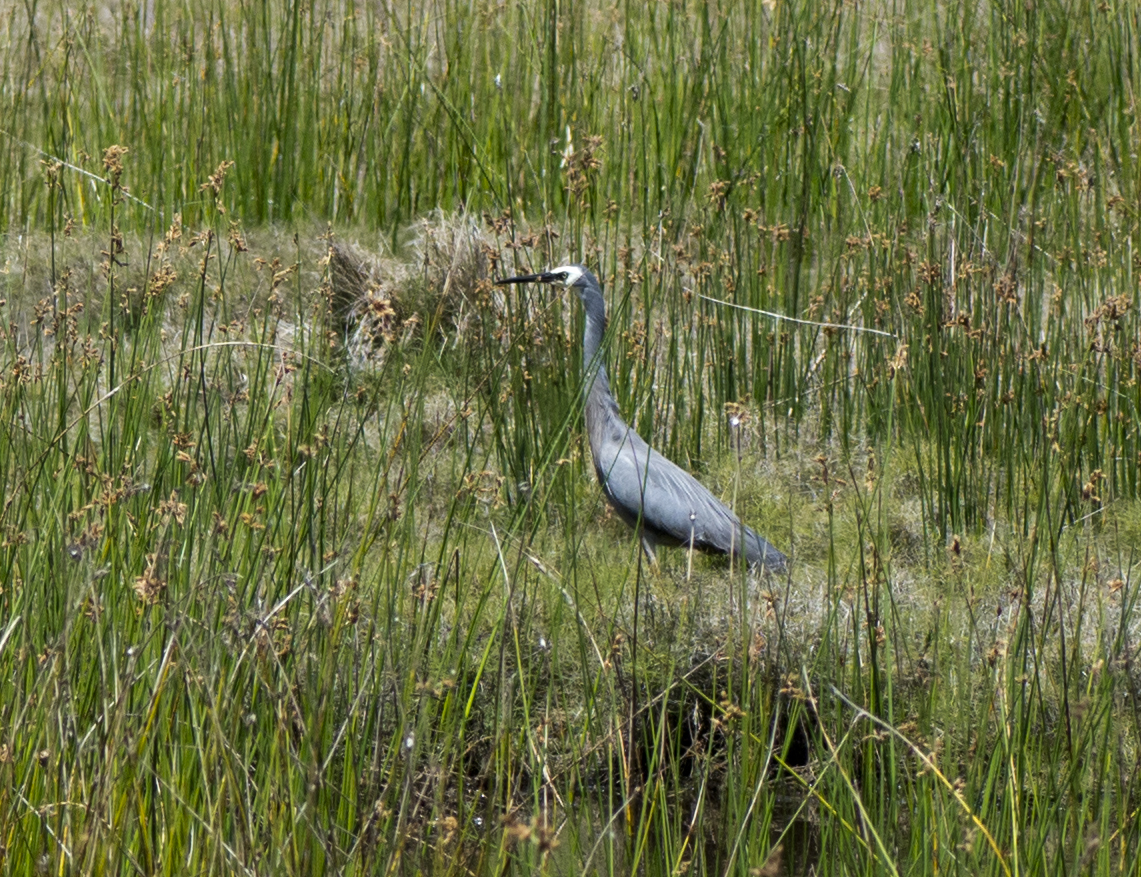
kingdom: Animalia
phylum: Chordata
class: Aves
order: Pelecaniformes
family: Ardeidae
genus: Egretta
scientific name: Egretta novaehollandiae
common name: White-faced heron
